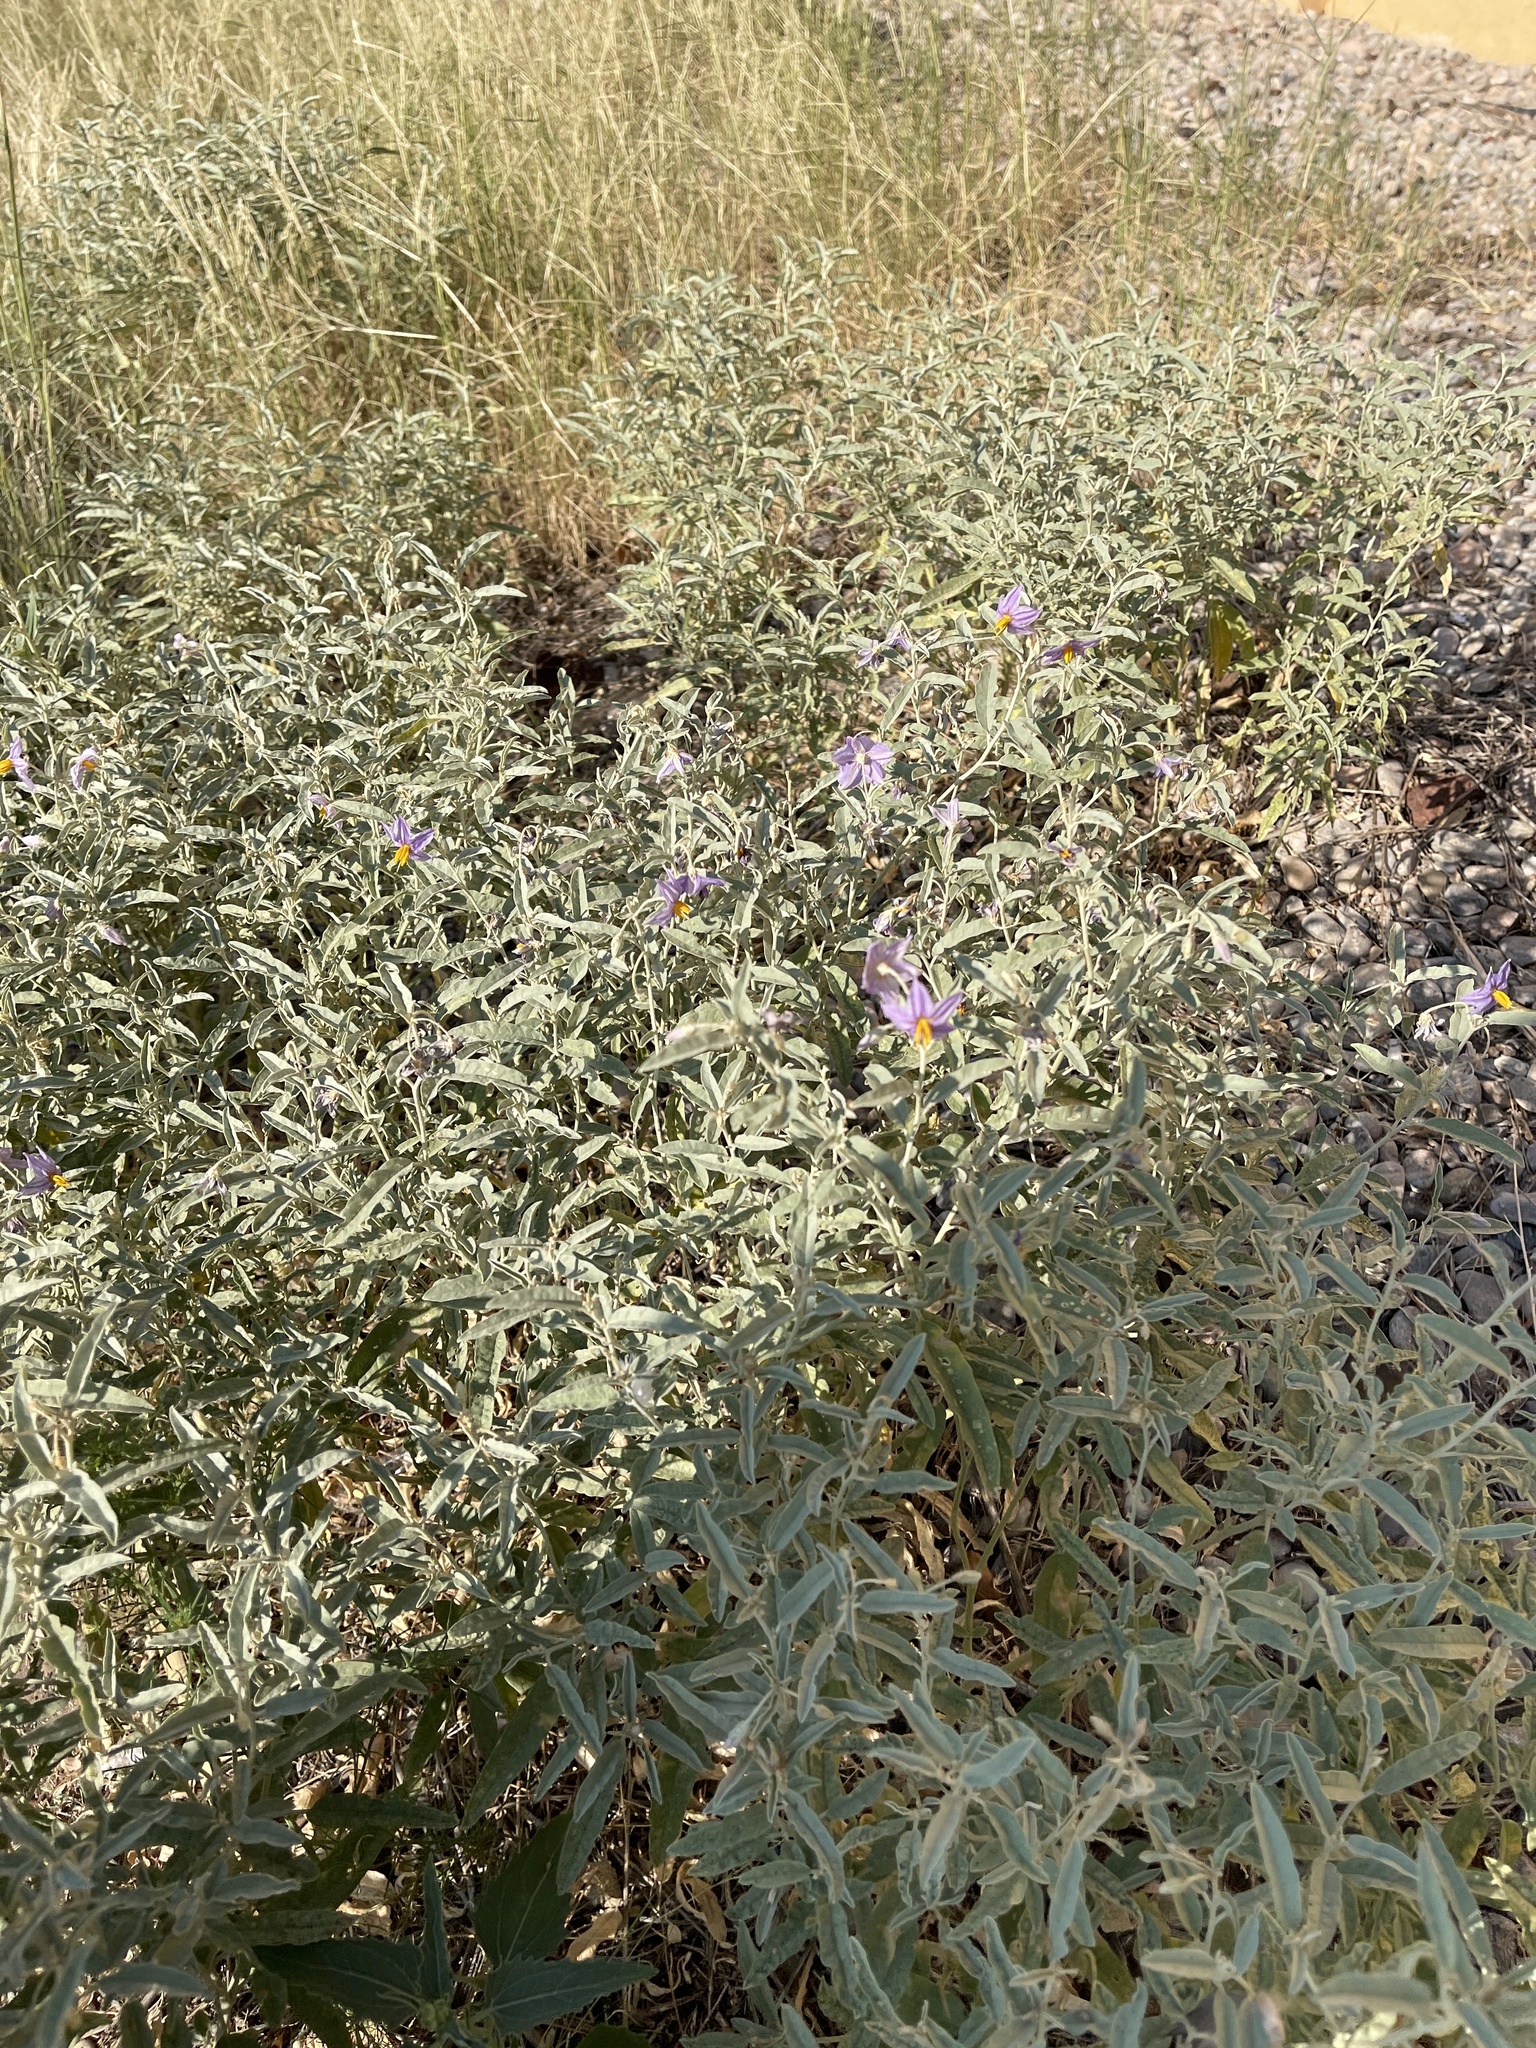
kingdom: Plantae
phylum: Tracheophyta
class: Magnoliopsida
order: Solanales
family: Solanaceae
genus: Solanum
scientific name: Solanum elaeagnifolium
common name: Silverleaf nightshade
